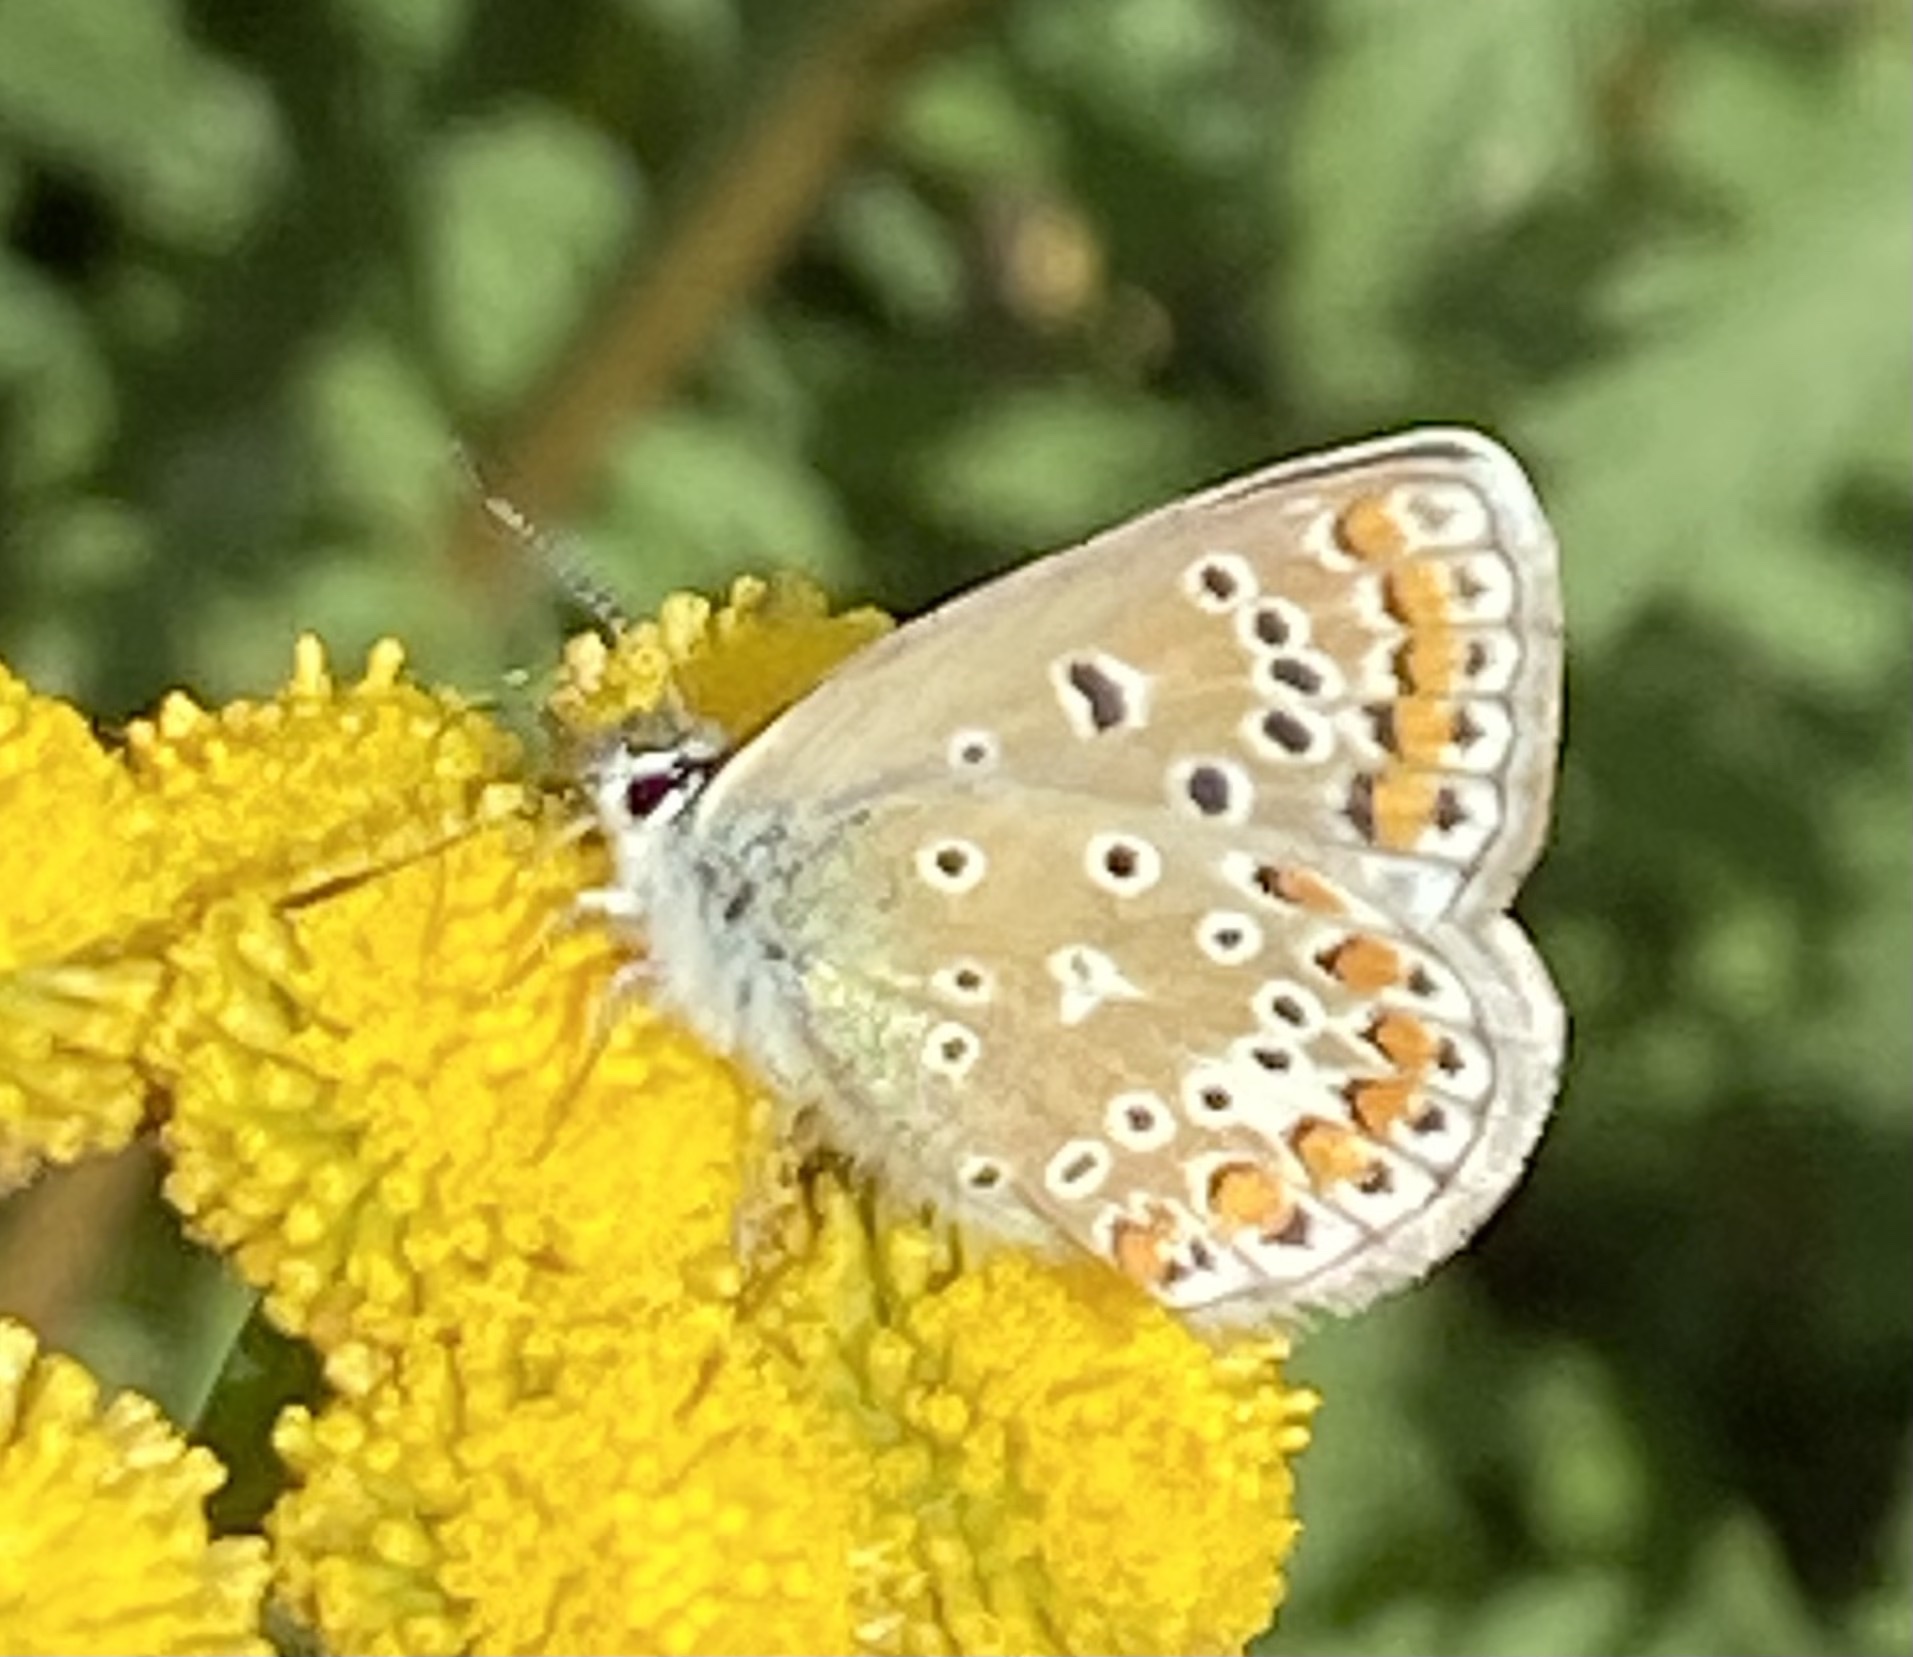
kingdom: Animalia
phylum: Arthropoda
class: Insecta
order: Lepidoptera
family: Lycaenidae
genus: Polyommatus
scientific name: Polyommatus icarus
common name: Common blue
